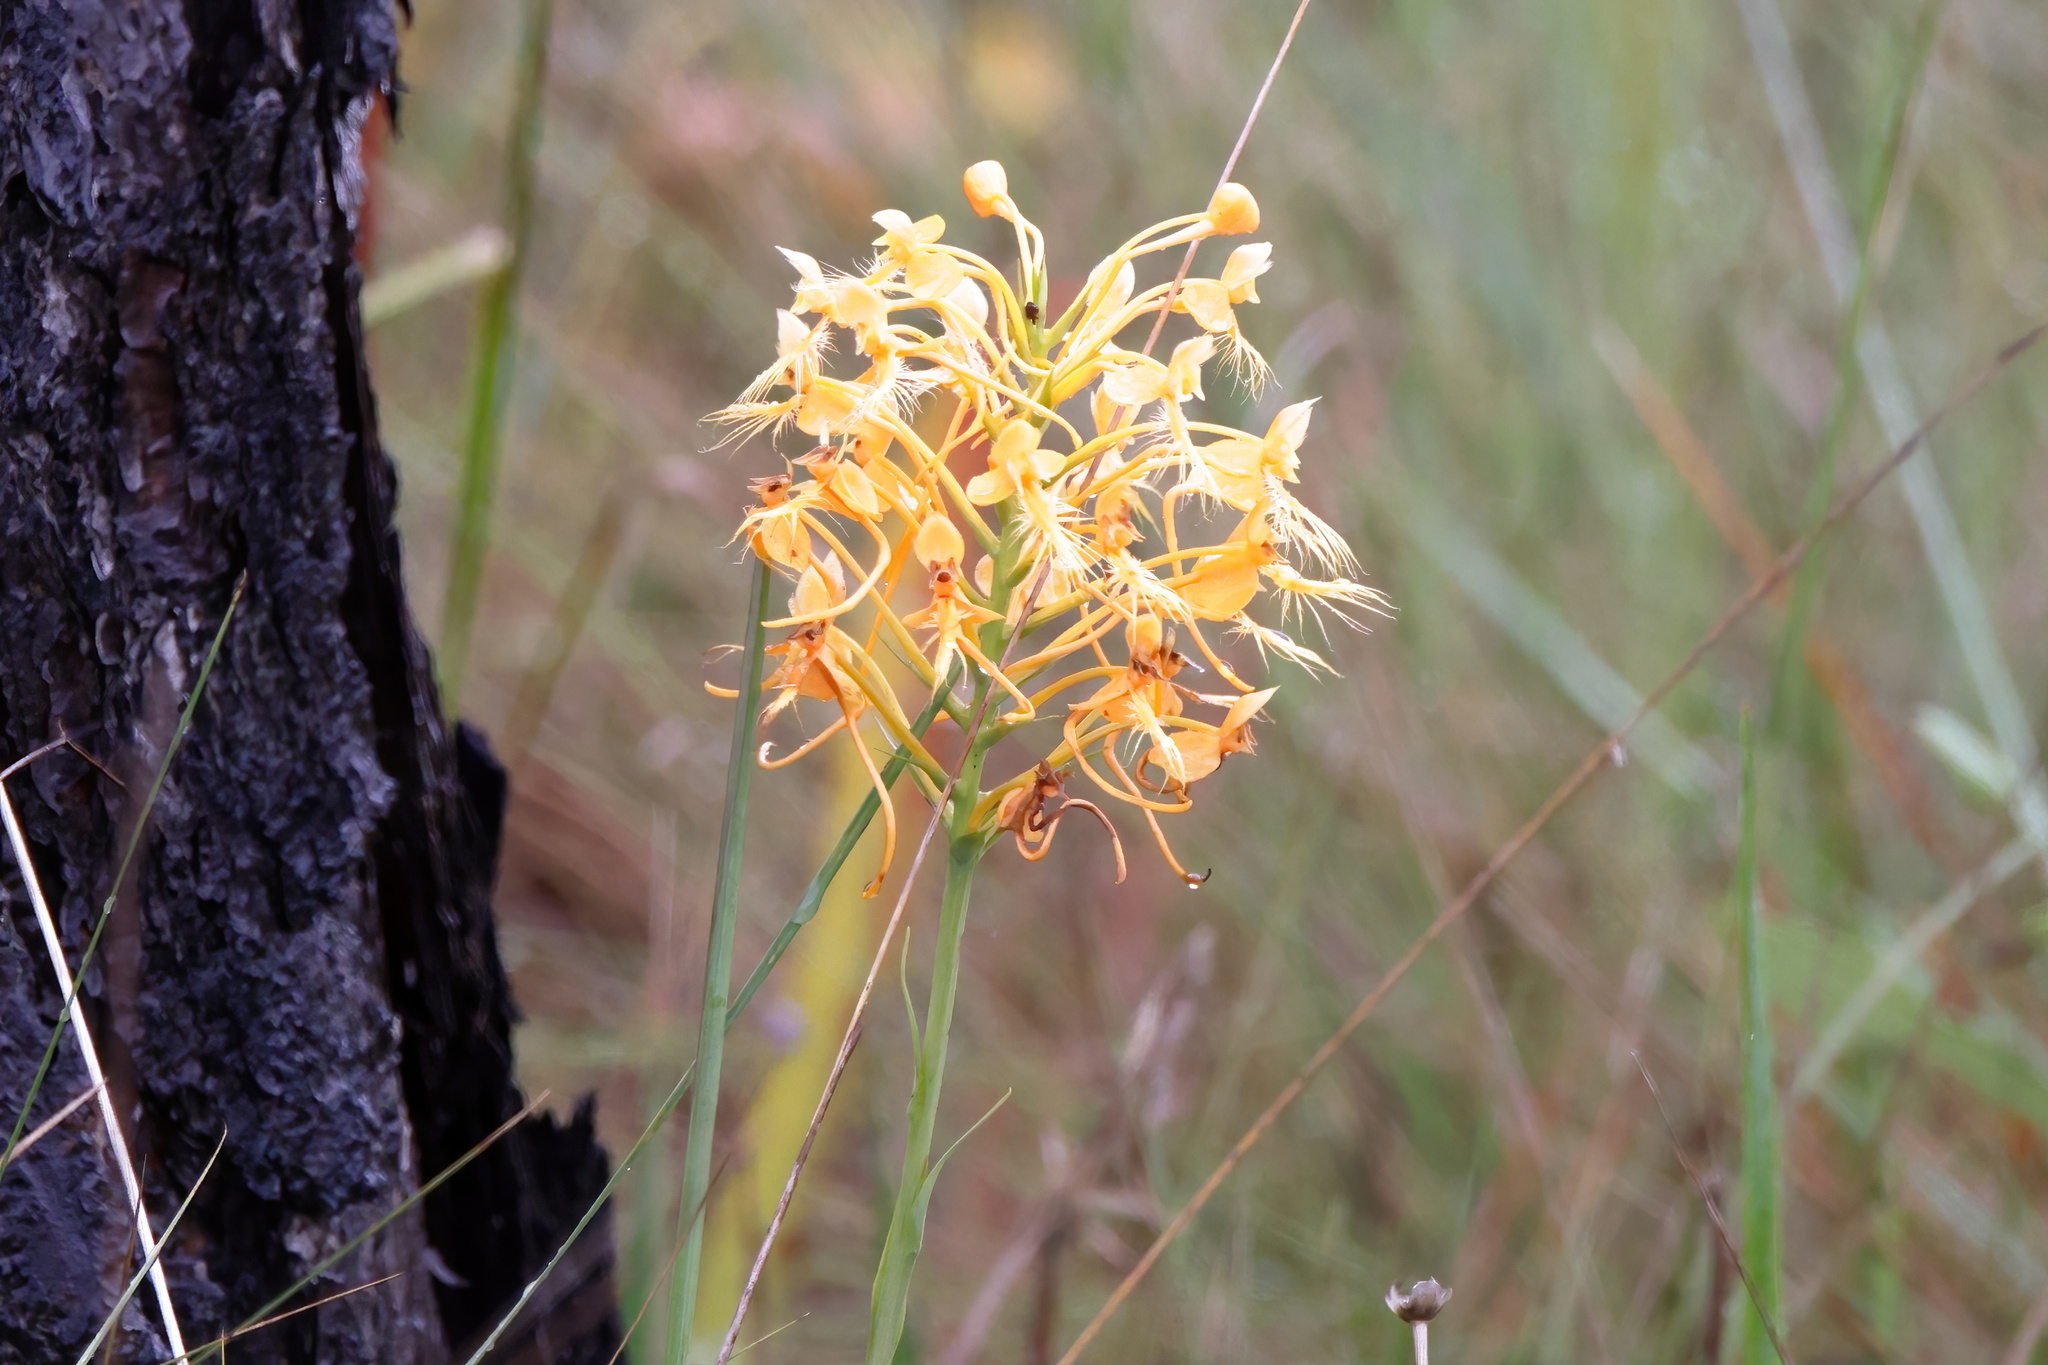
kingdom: Plantae
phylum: Tracheophyta
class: Liliopsida
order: Asparagales
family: Orchidaceae
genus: Platanthera
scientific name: Platanthera ciliaris
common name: Yellow fringed orchid
